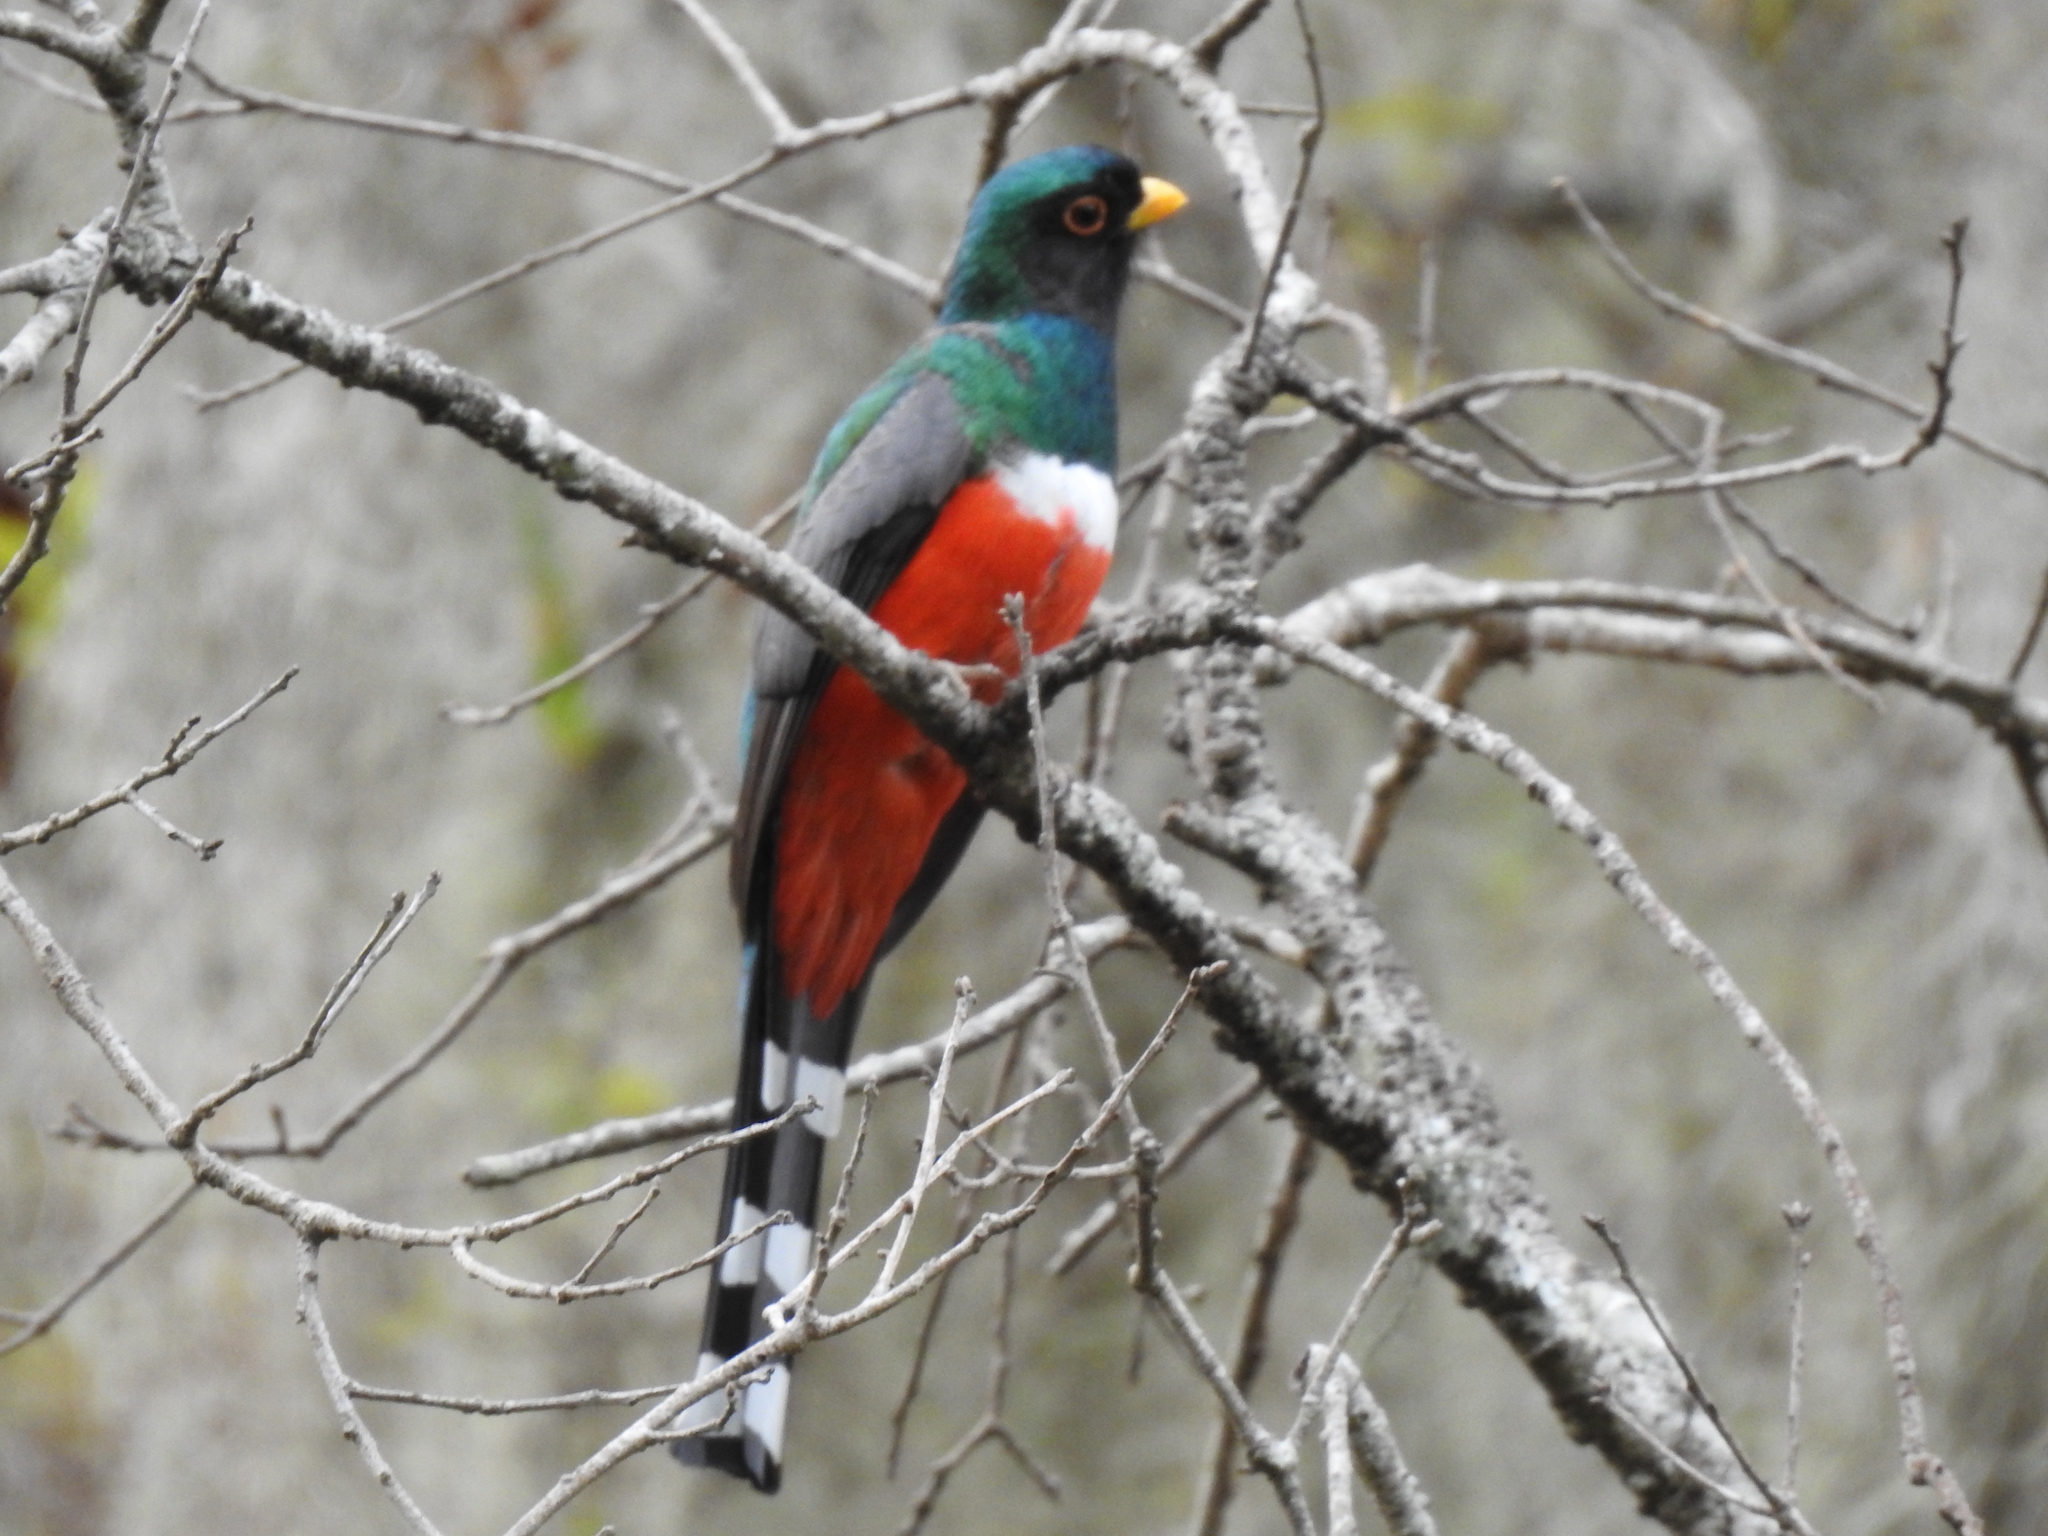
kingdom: Animalia
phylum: Chordata
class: Aves
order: Trogoniformes
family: Trogonidae
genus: Trogon
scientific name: Trogon mexicanus
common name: Mountain trogon
